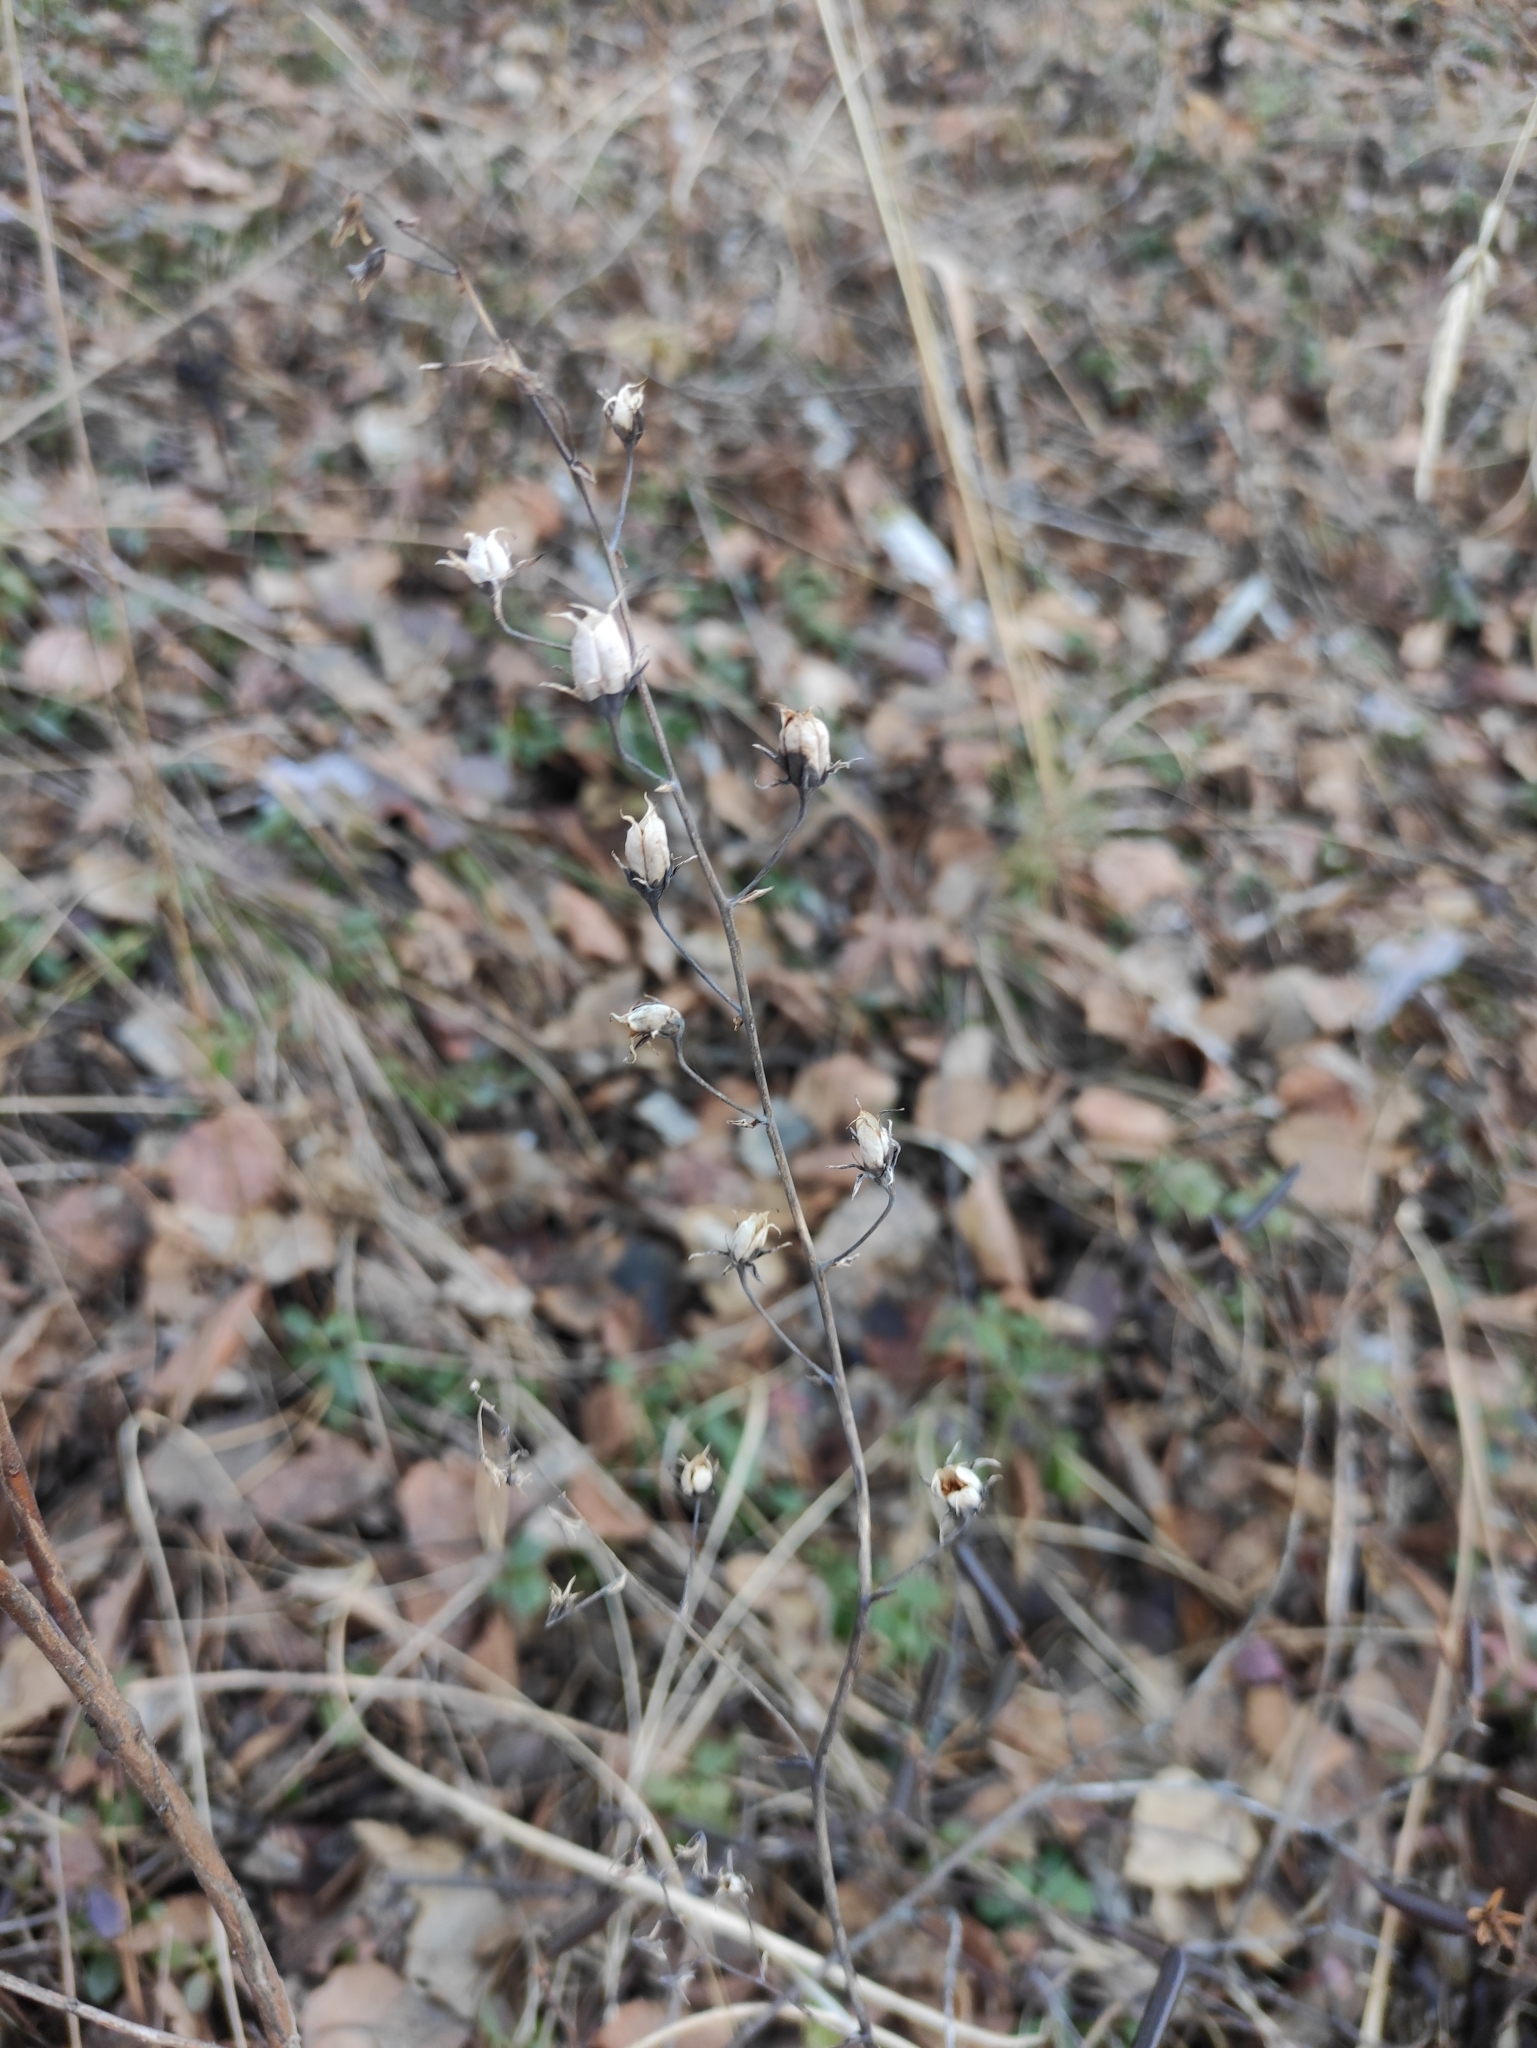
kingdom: Plantae
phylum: Tracheophyta
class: Liliopsida
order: Liliales
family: Melanthiaceae
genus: Anticlea
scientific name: Anticlea sibirica
